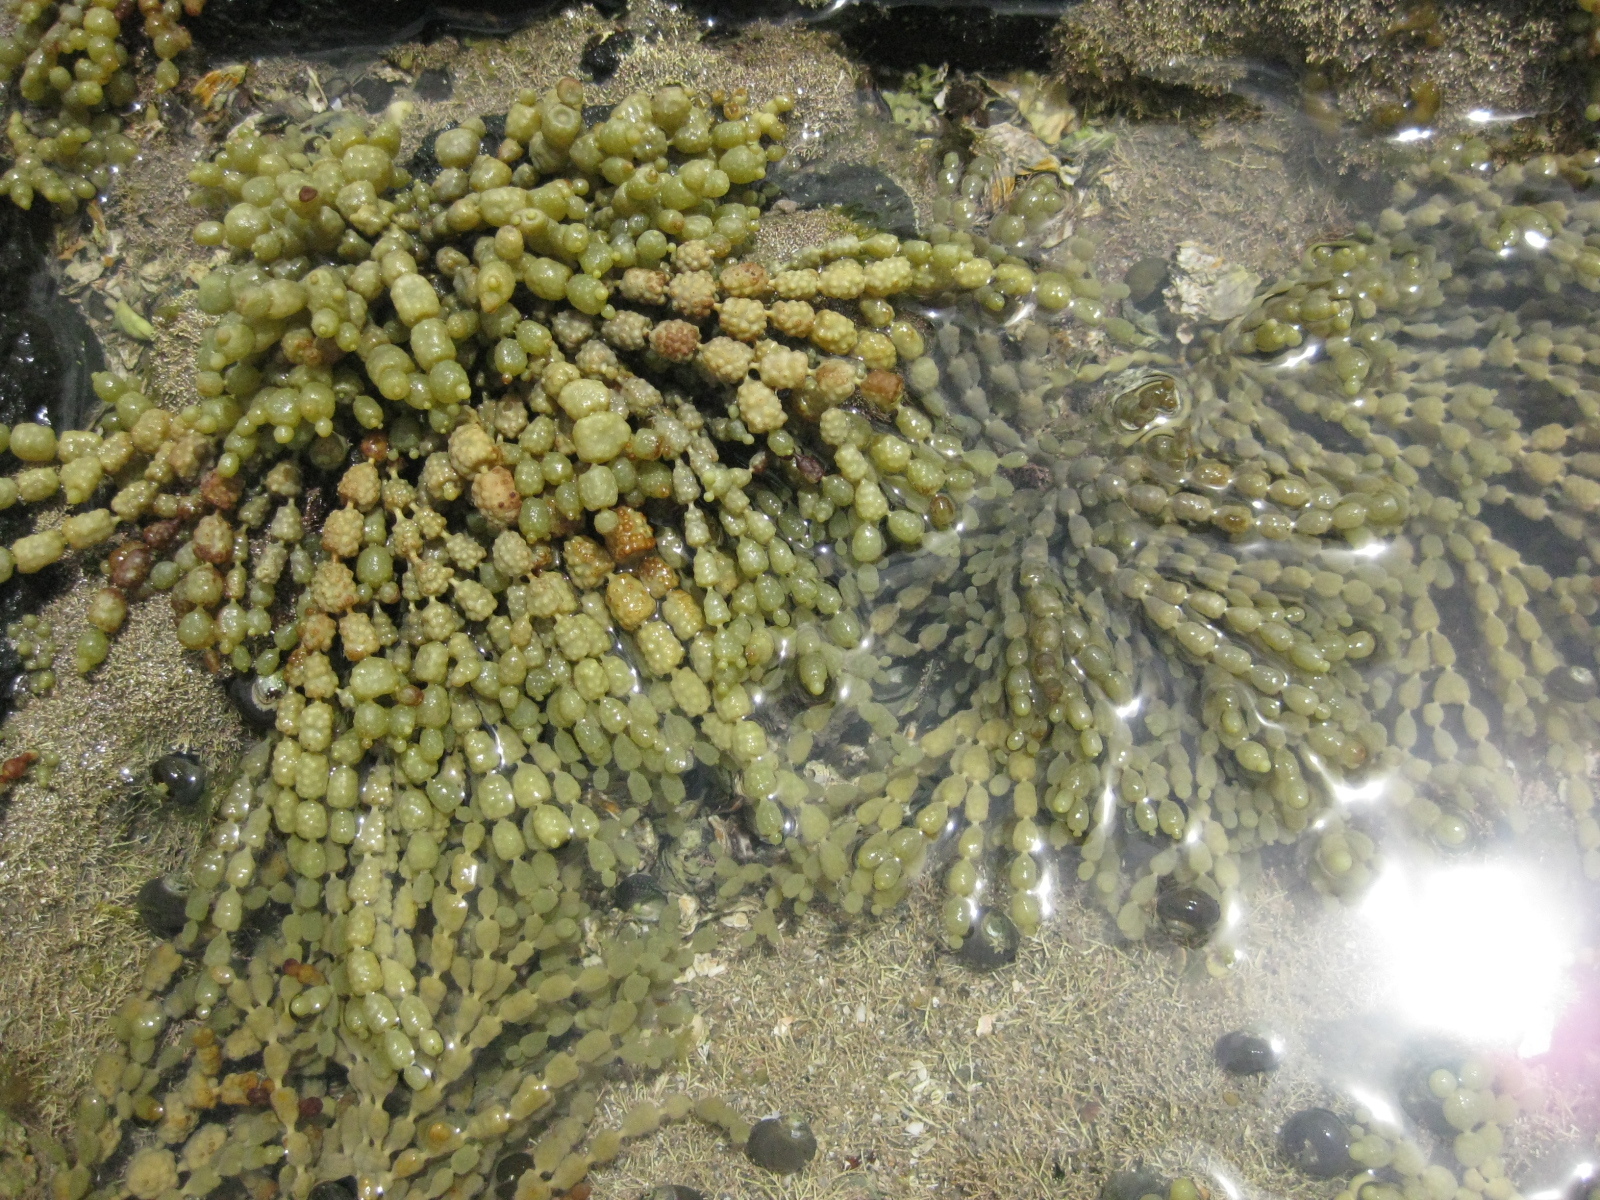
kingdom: Chromista
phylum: Ochrophyta
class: Phaeophyceae
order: Fucales
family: Hormosiraceae
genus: Hormosira
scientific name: Hormosira banksii
